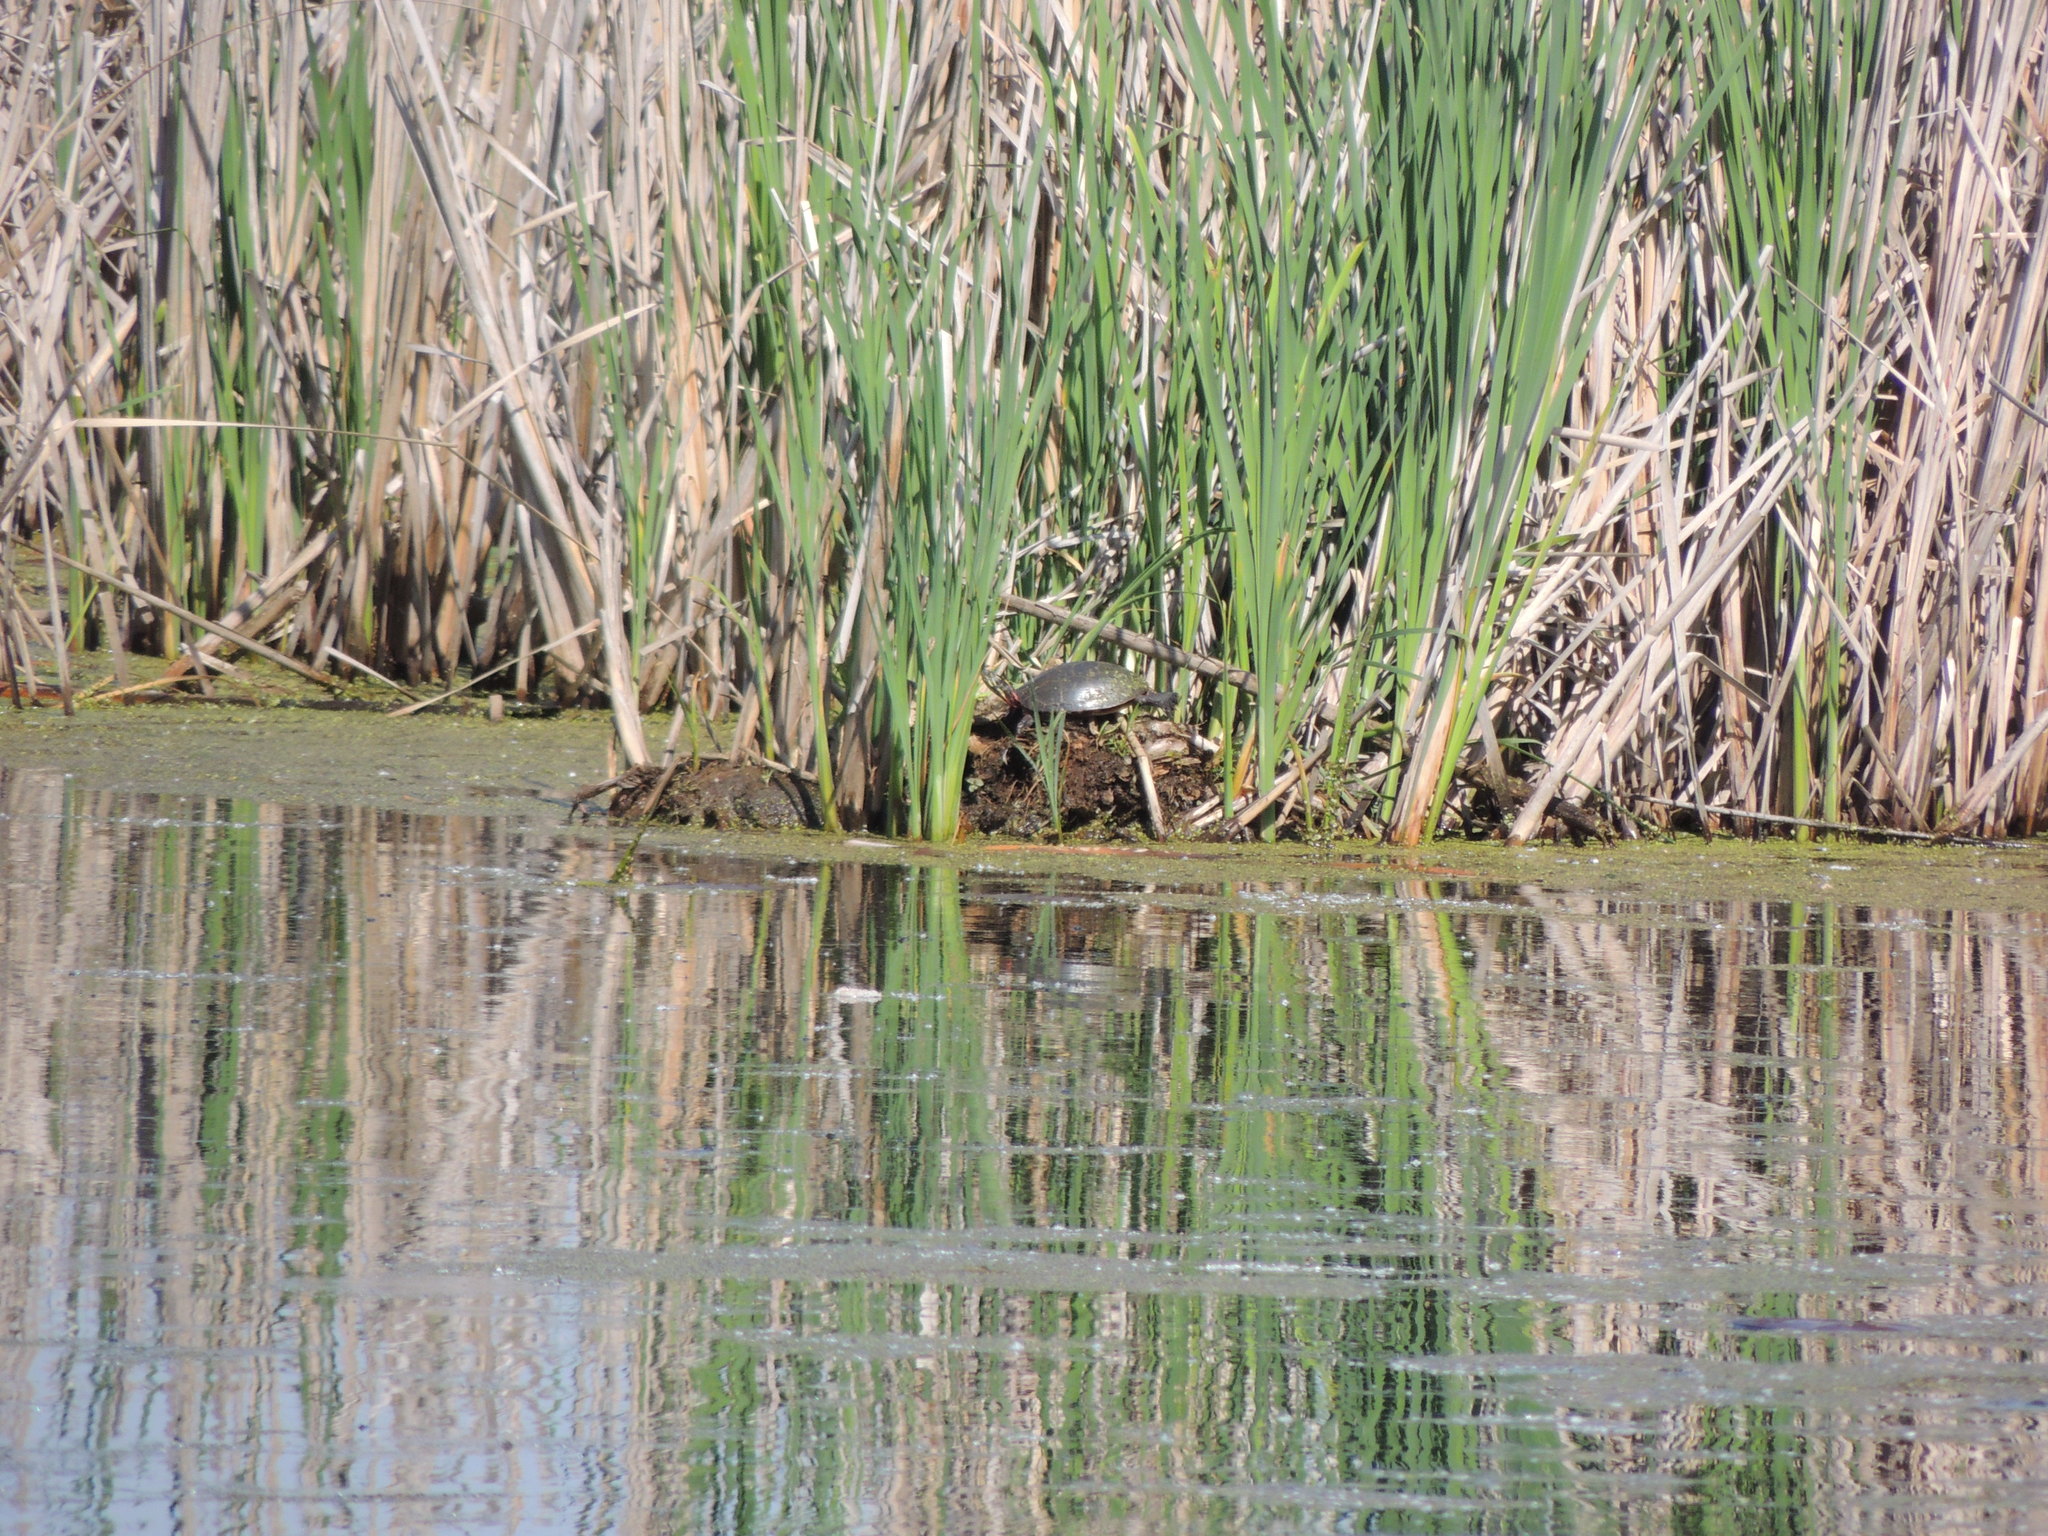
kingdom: Animalia
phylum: Chordata
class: Testudines
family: Emydidae
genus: Chrysemys
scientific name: Chrysemys picta
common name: Painted turtle
